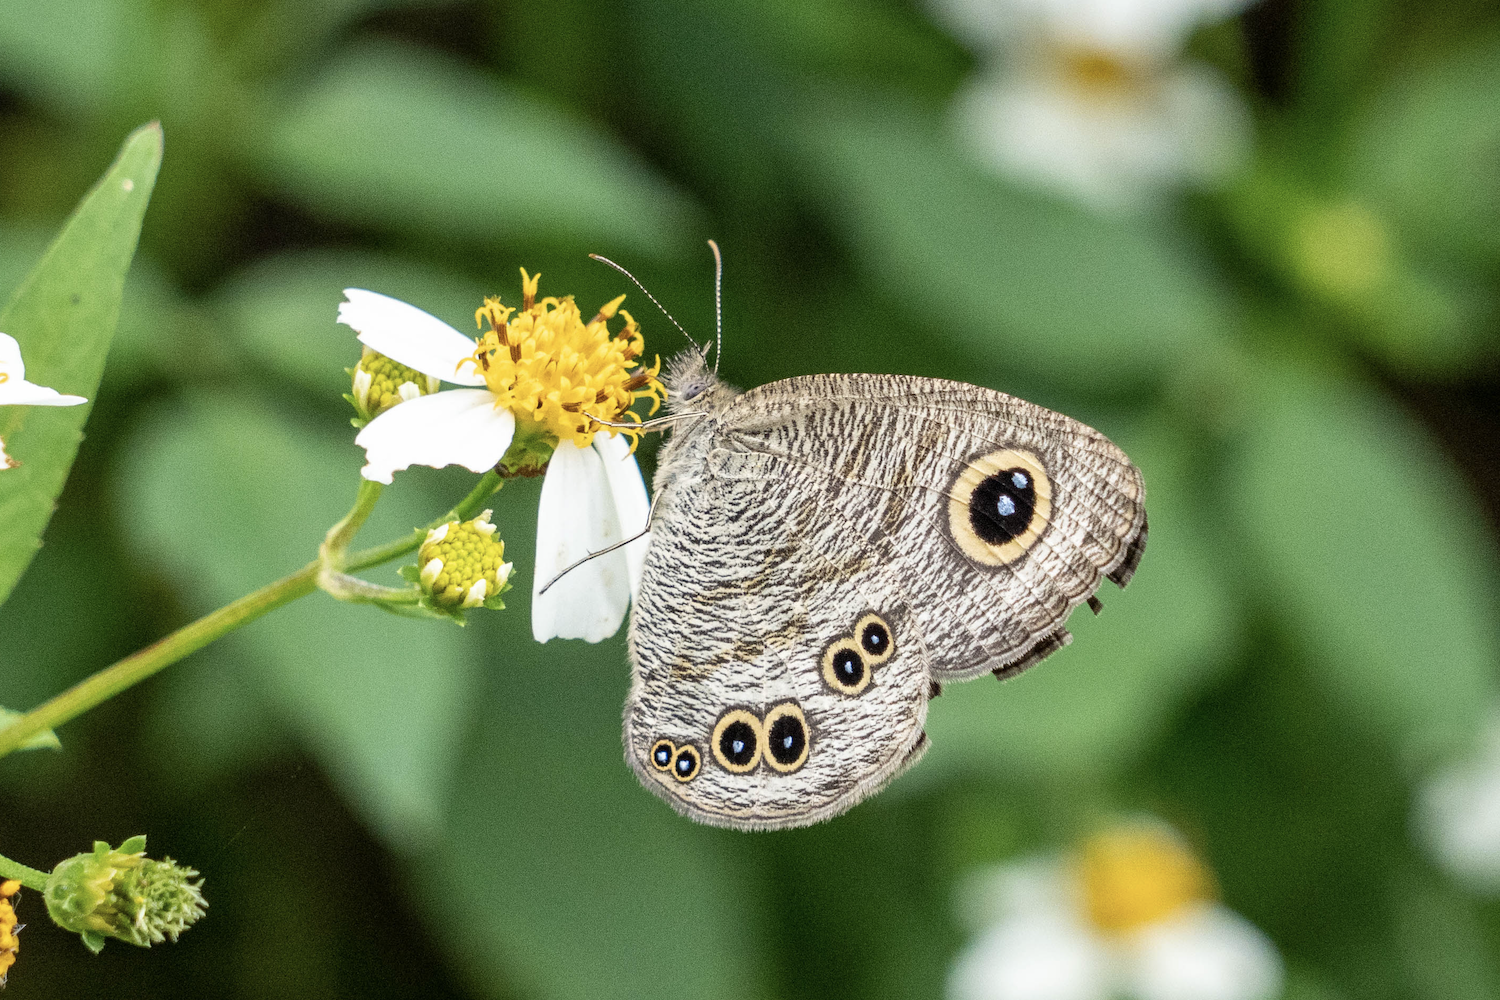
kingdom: Animalia
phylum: Arthropoda
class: Insecta
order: Lepidoptera
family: Nymphalidae
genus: Ypthima
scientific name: Ypthima baldus
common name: Common five-ring
